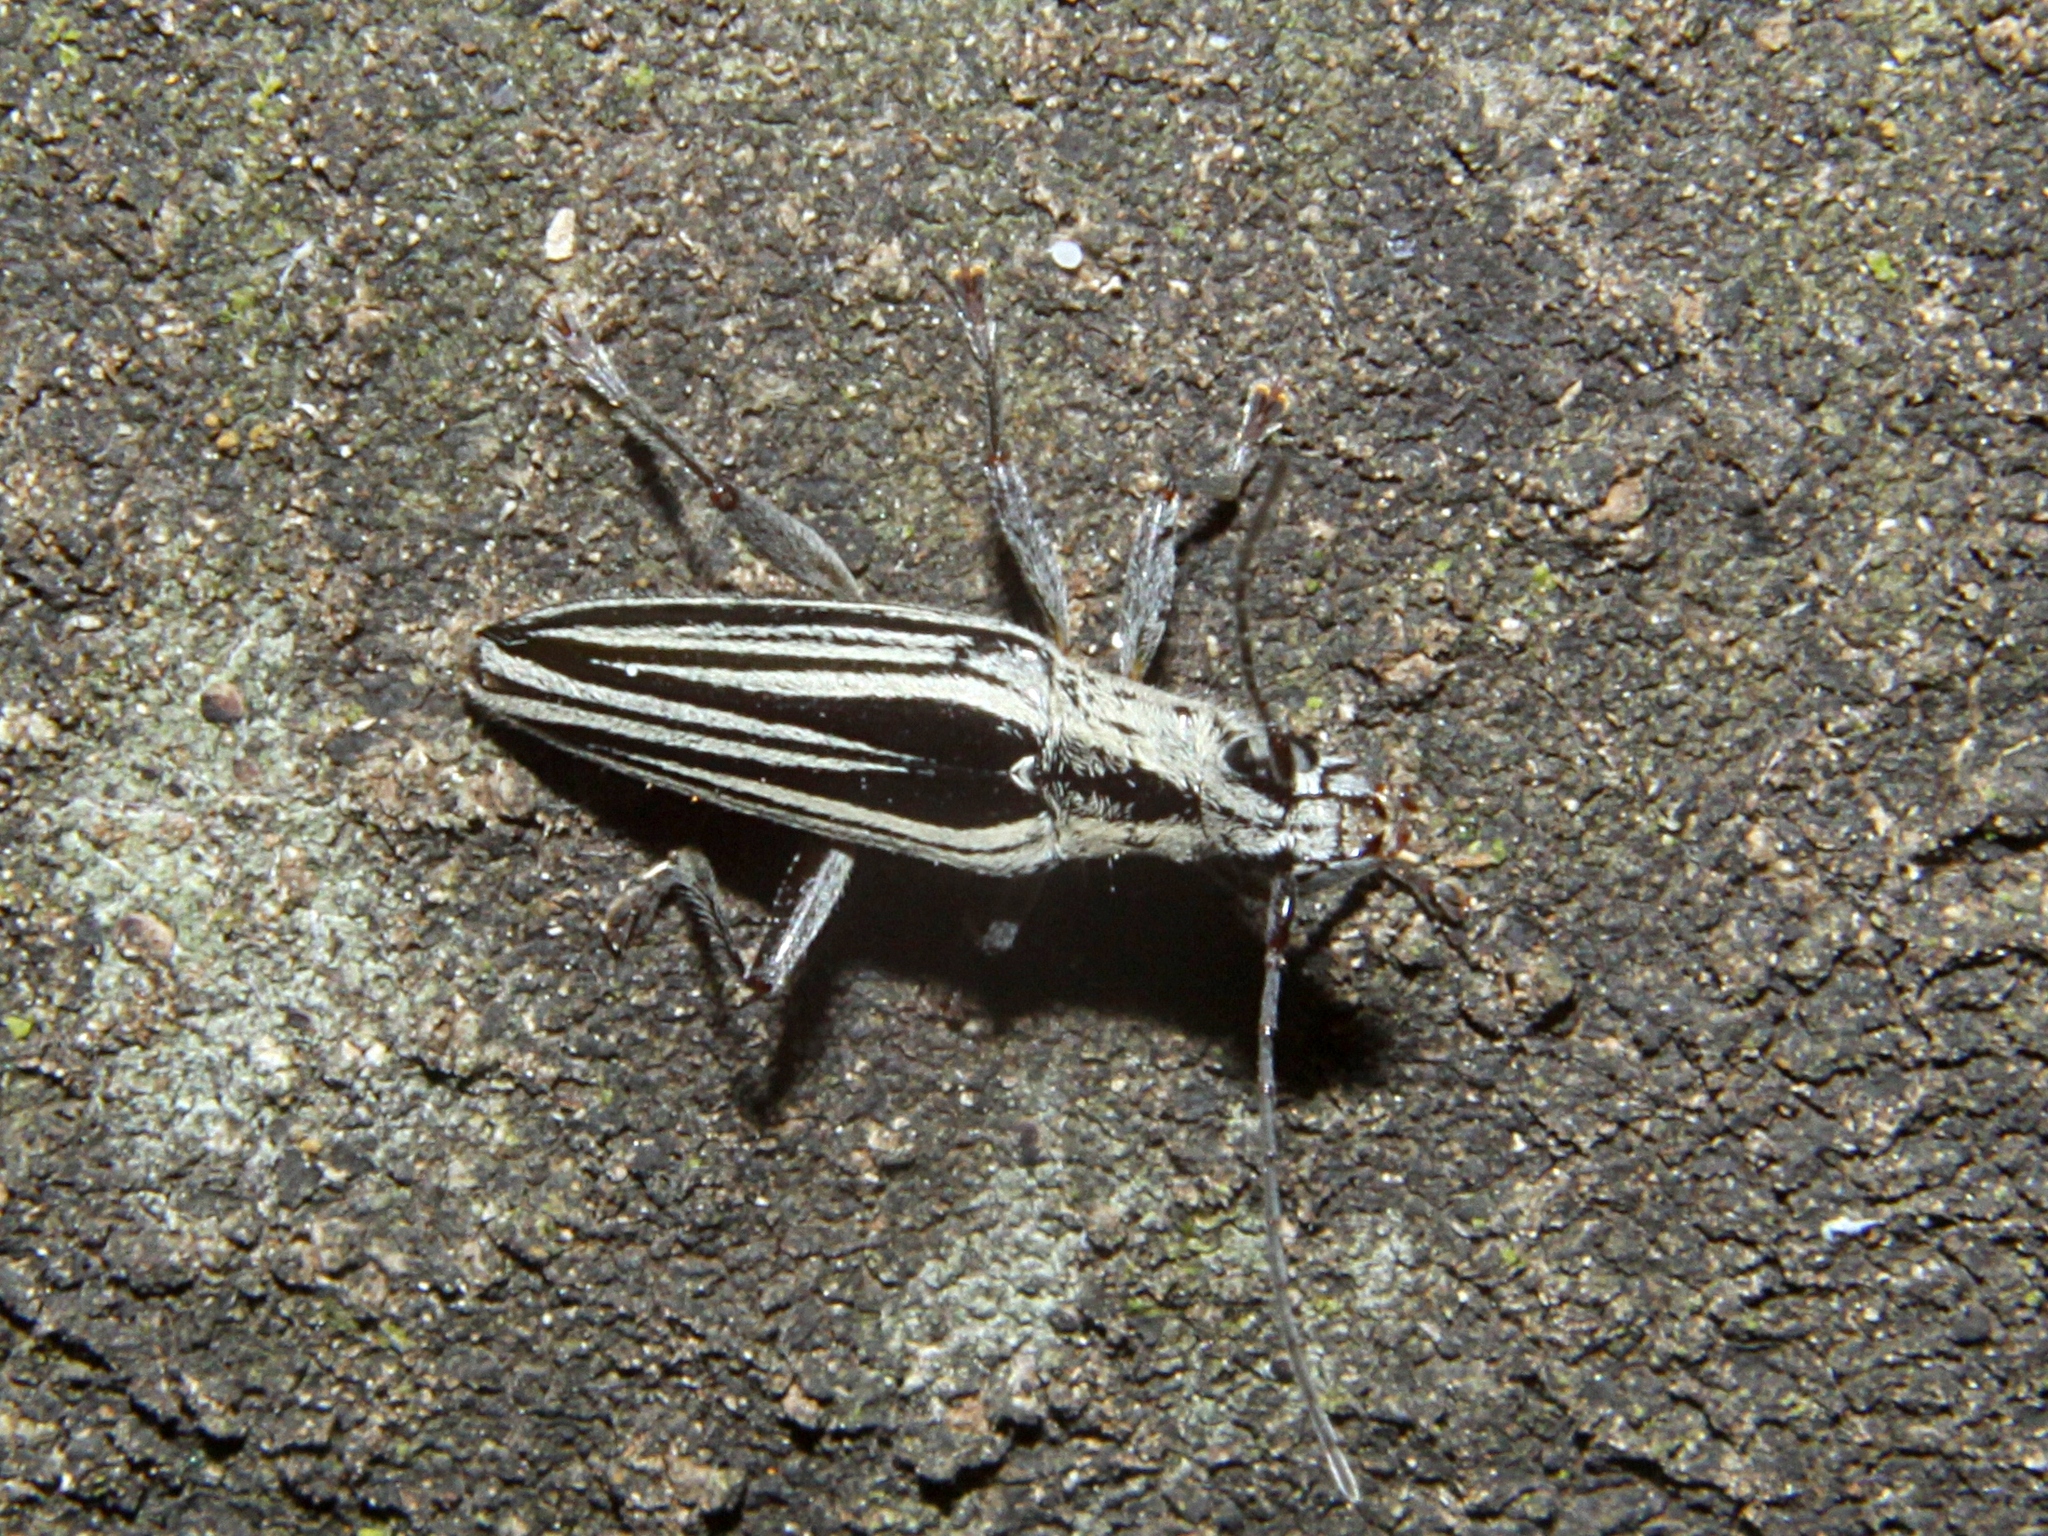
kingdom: Animalia
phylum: Arthropoda
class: Insecta
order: Coleoptera
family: Cerambycidae
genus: Coptomma
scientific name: Coptomma sulcatum
